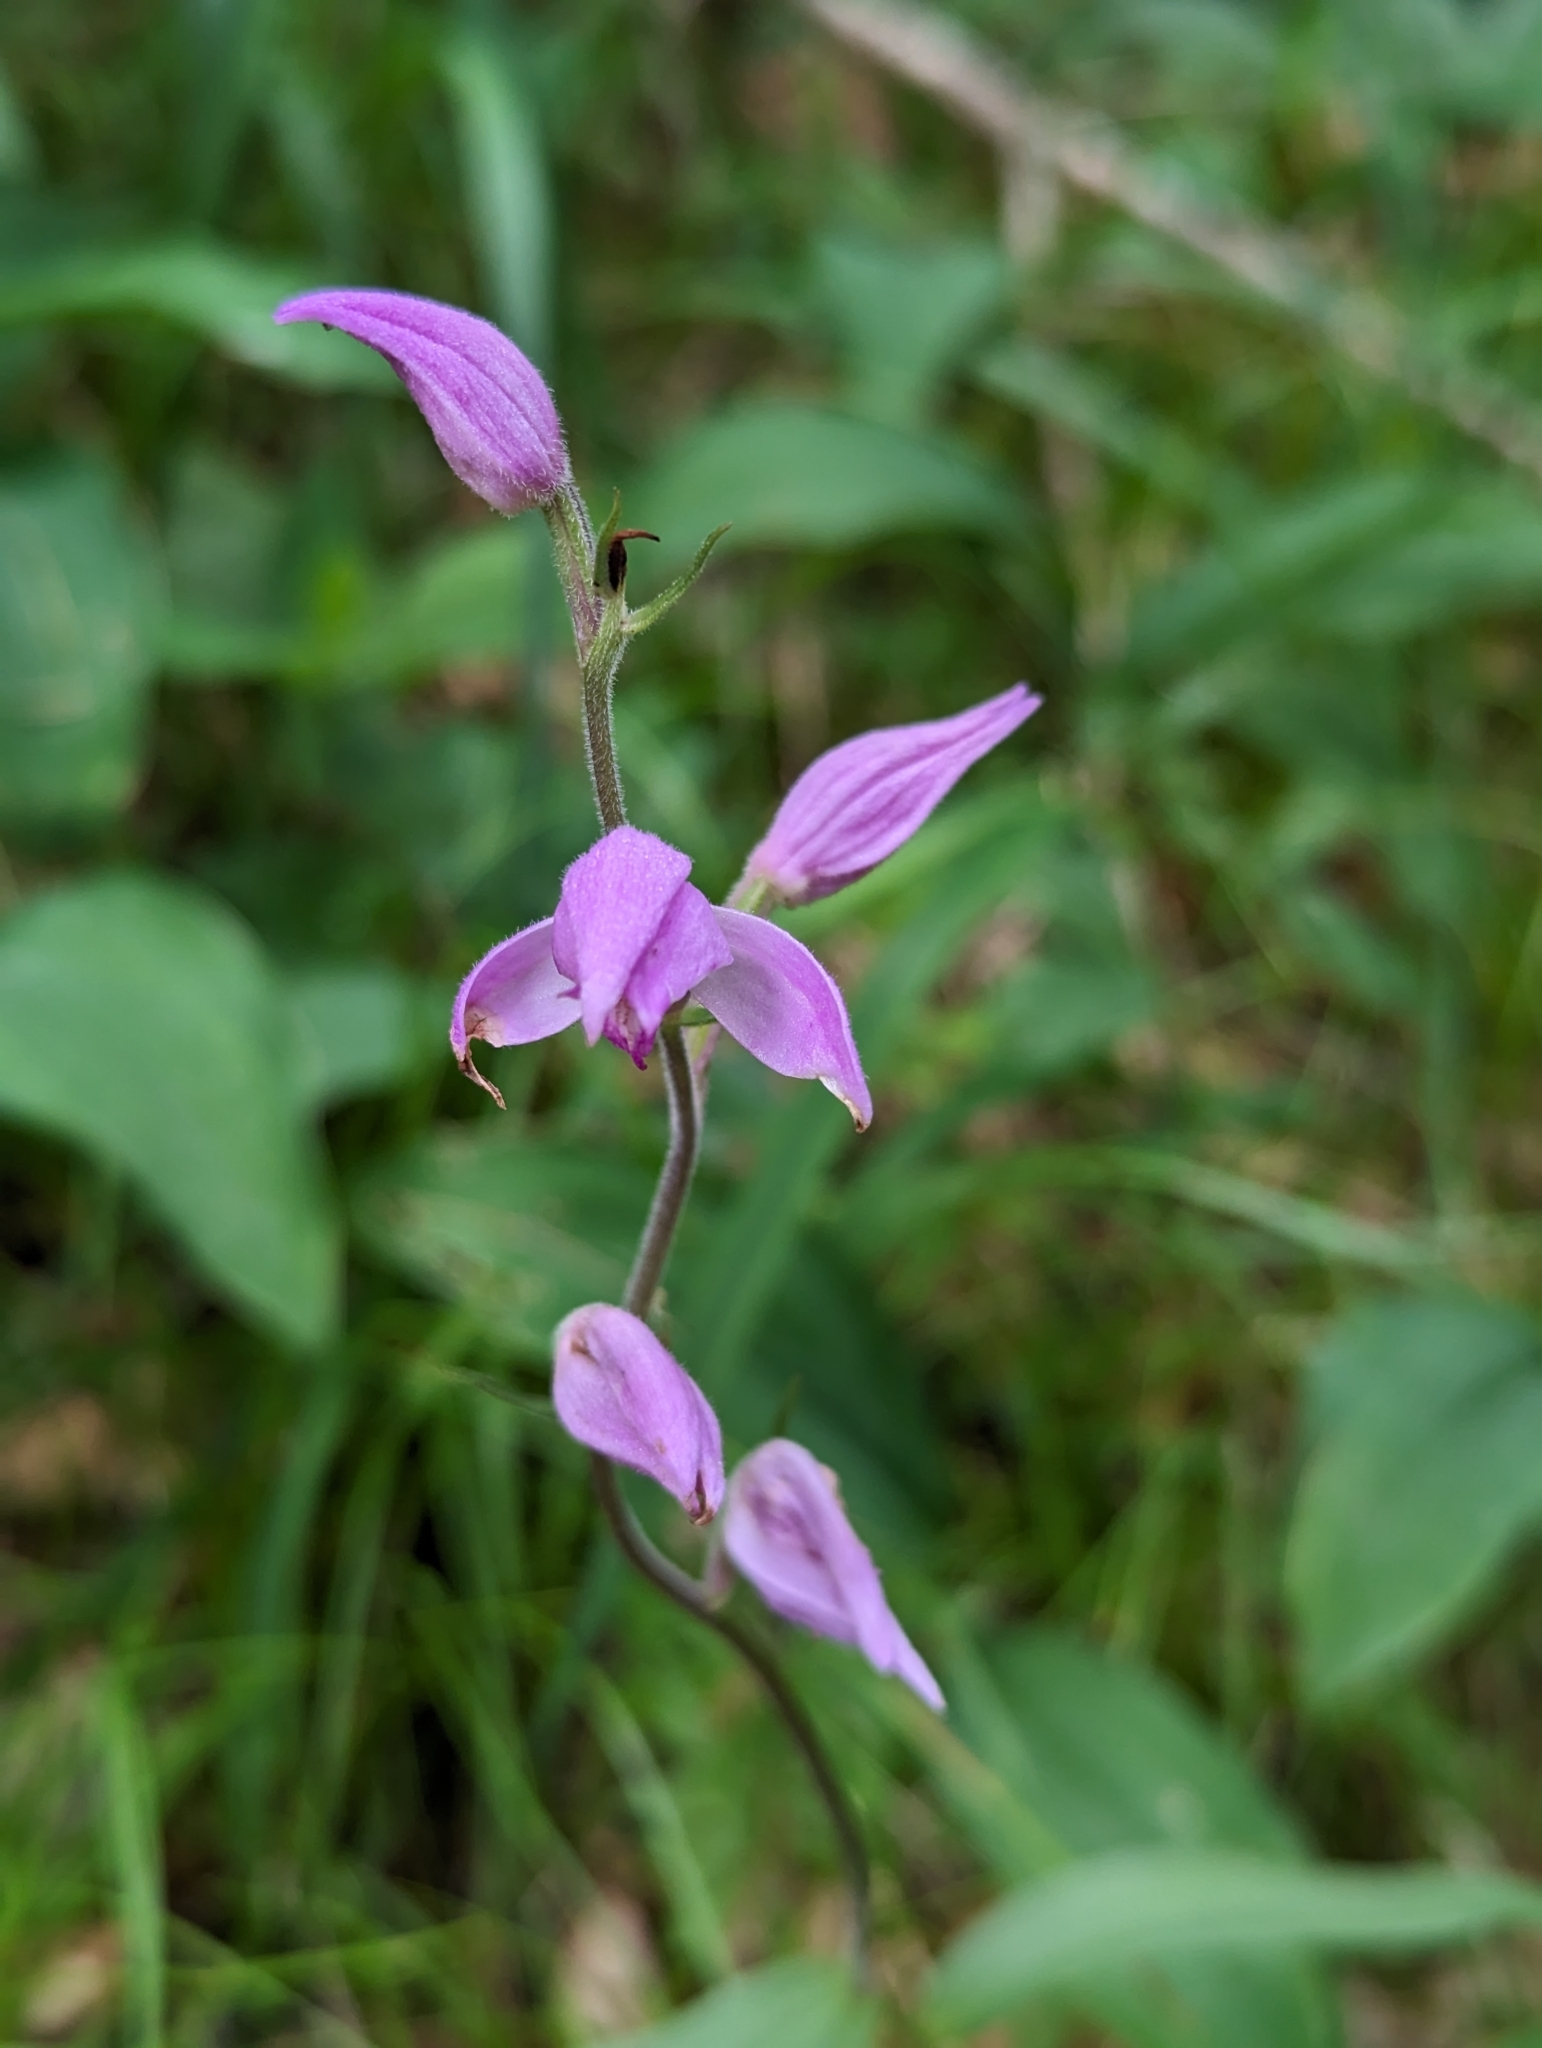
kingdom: Plantae
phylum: Tracheophyta
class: Liliopsida
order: Asparagales
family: Orchidaceae
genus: Cephalanthera
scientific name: Cephalanthera rubra
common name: Red helleborine
